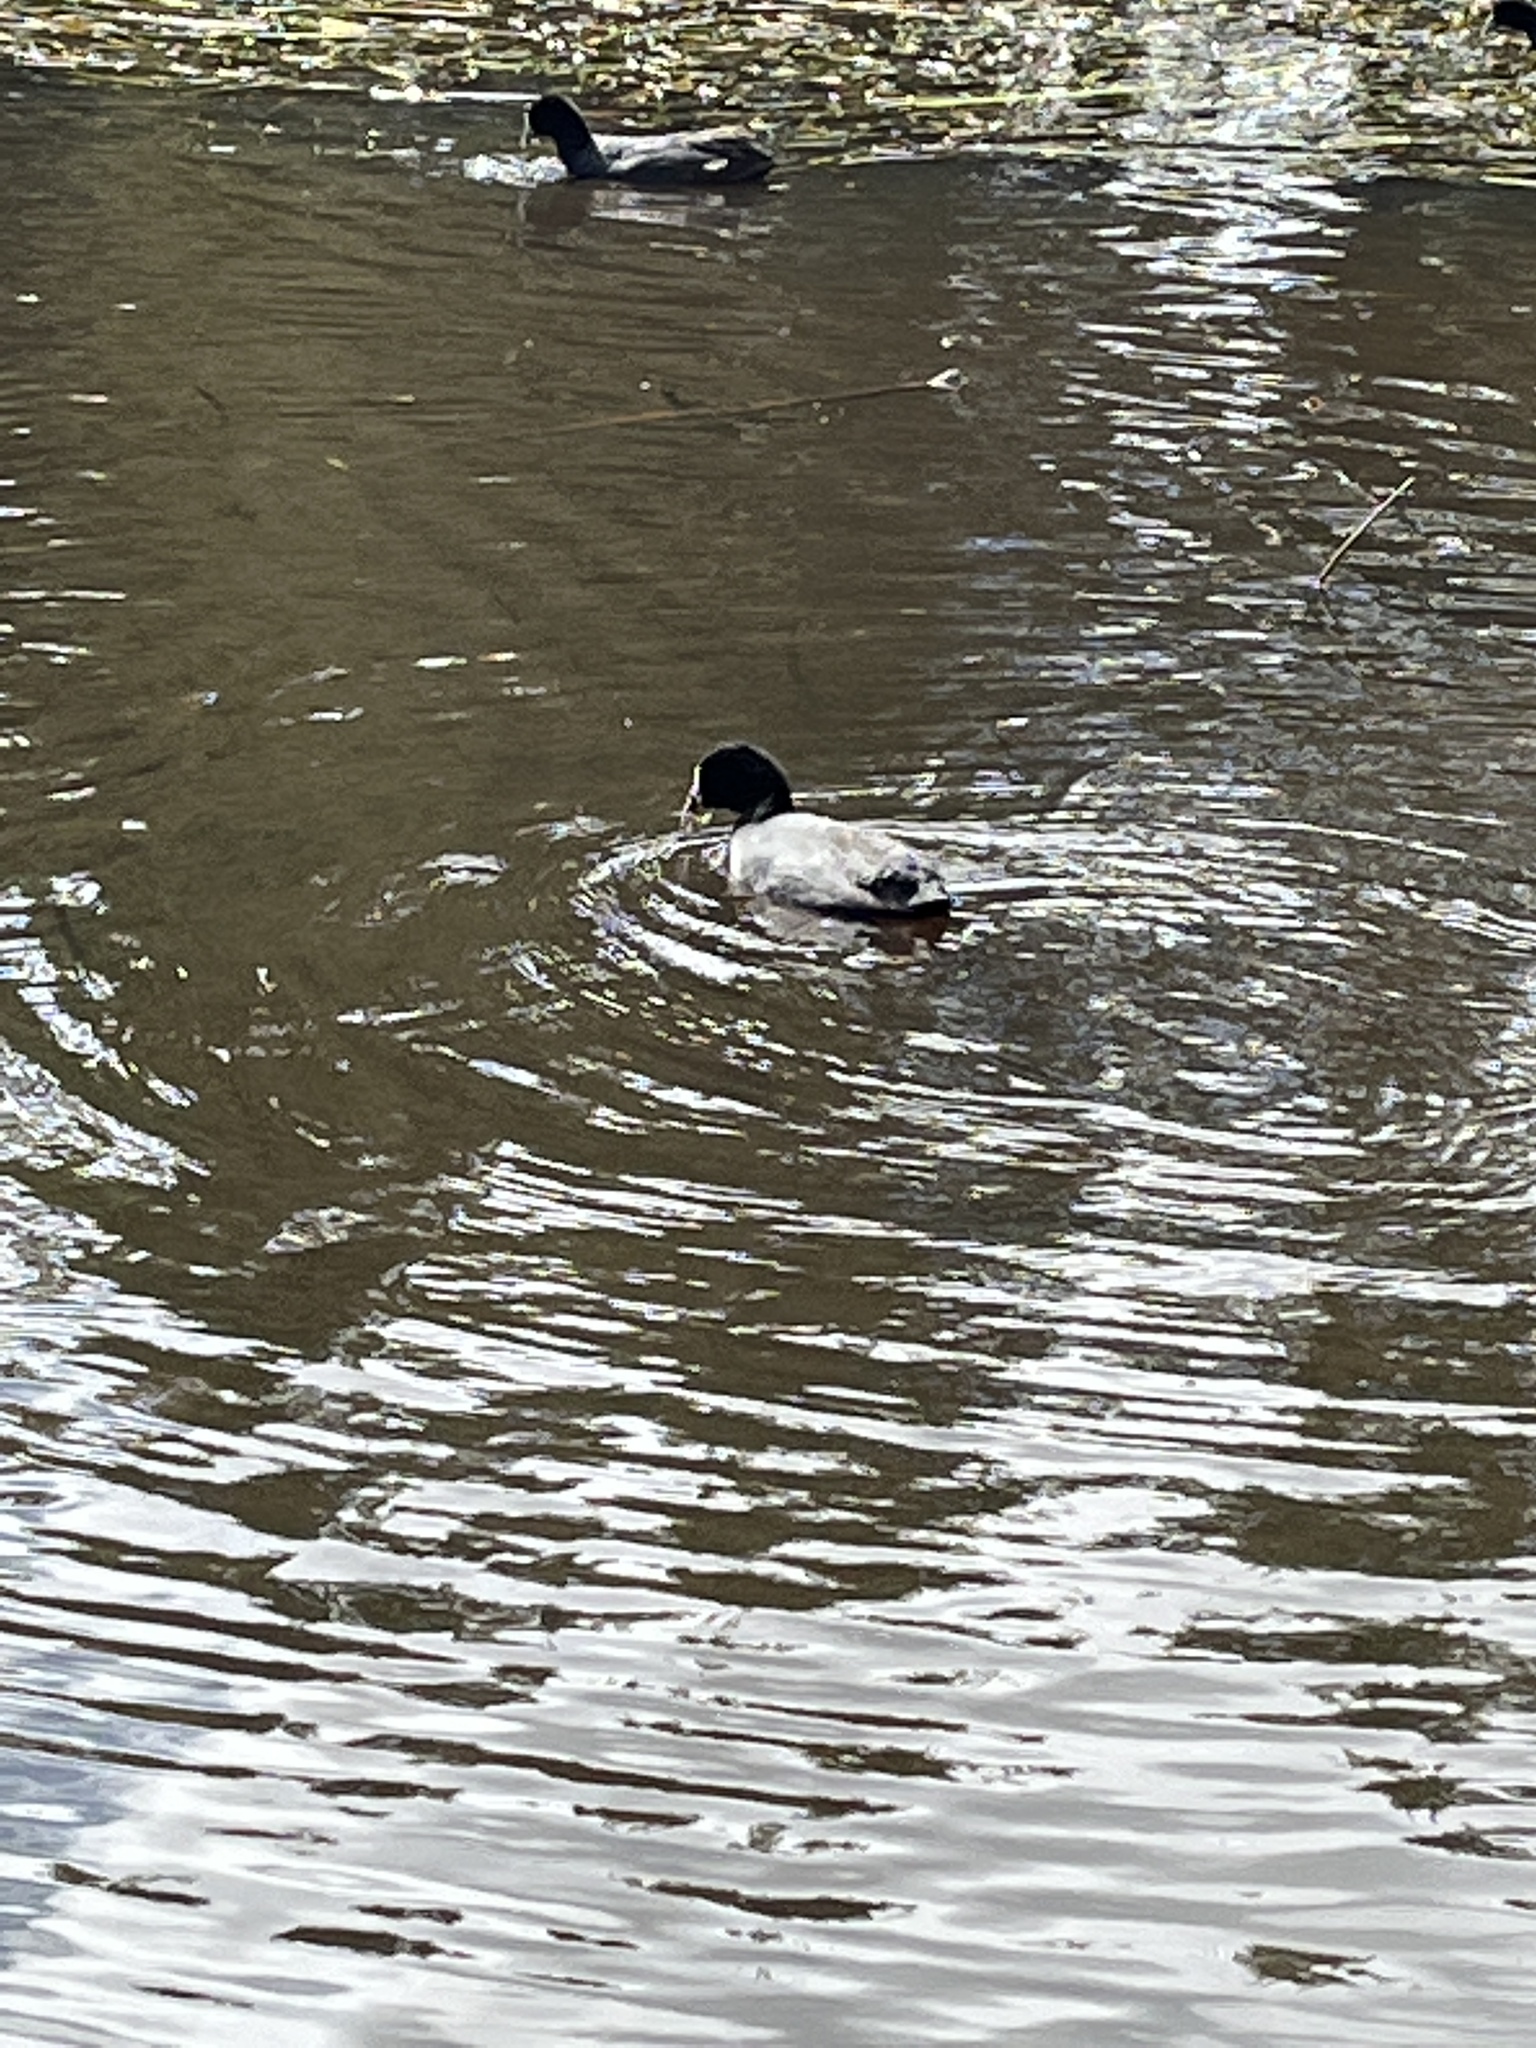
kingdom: Animalia
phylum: Chordata
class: Aves
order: Gruiformes
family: Rallidae
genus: Fulica
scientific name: Fulica atra
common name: Eurasian coot
